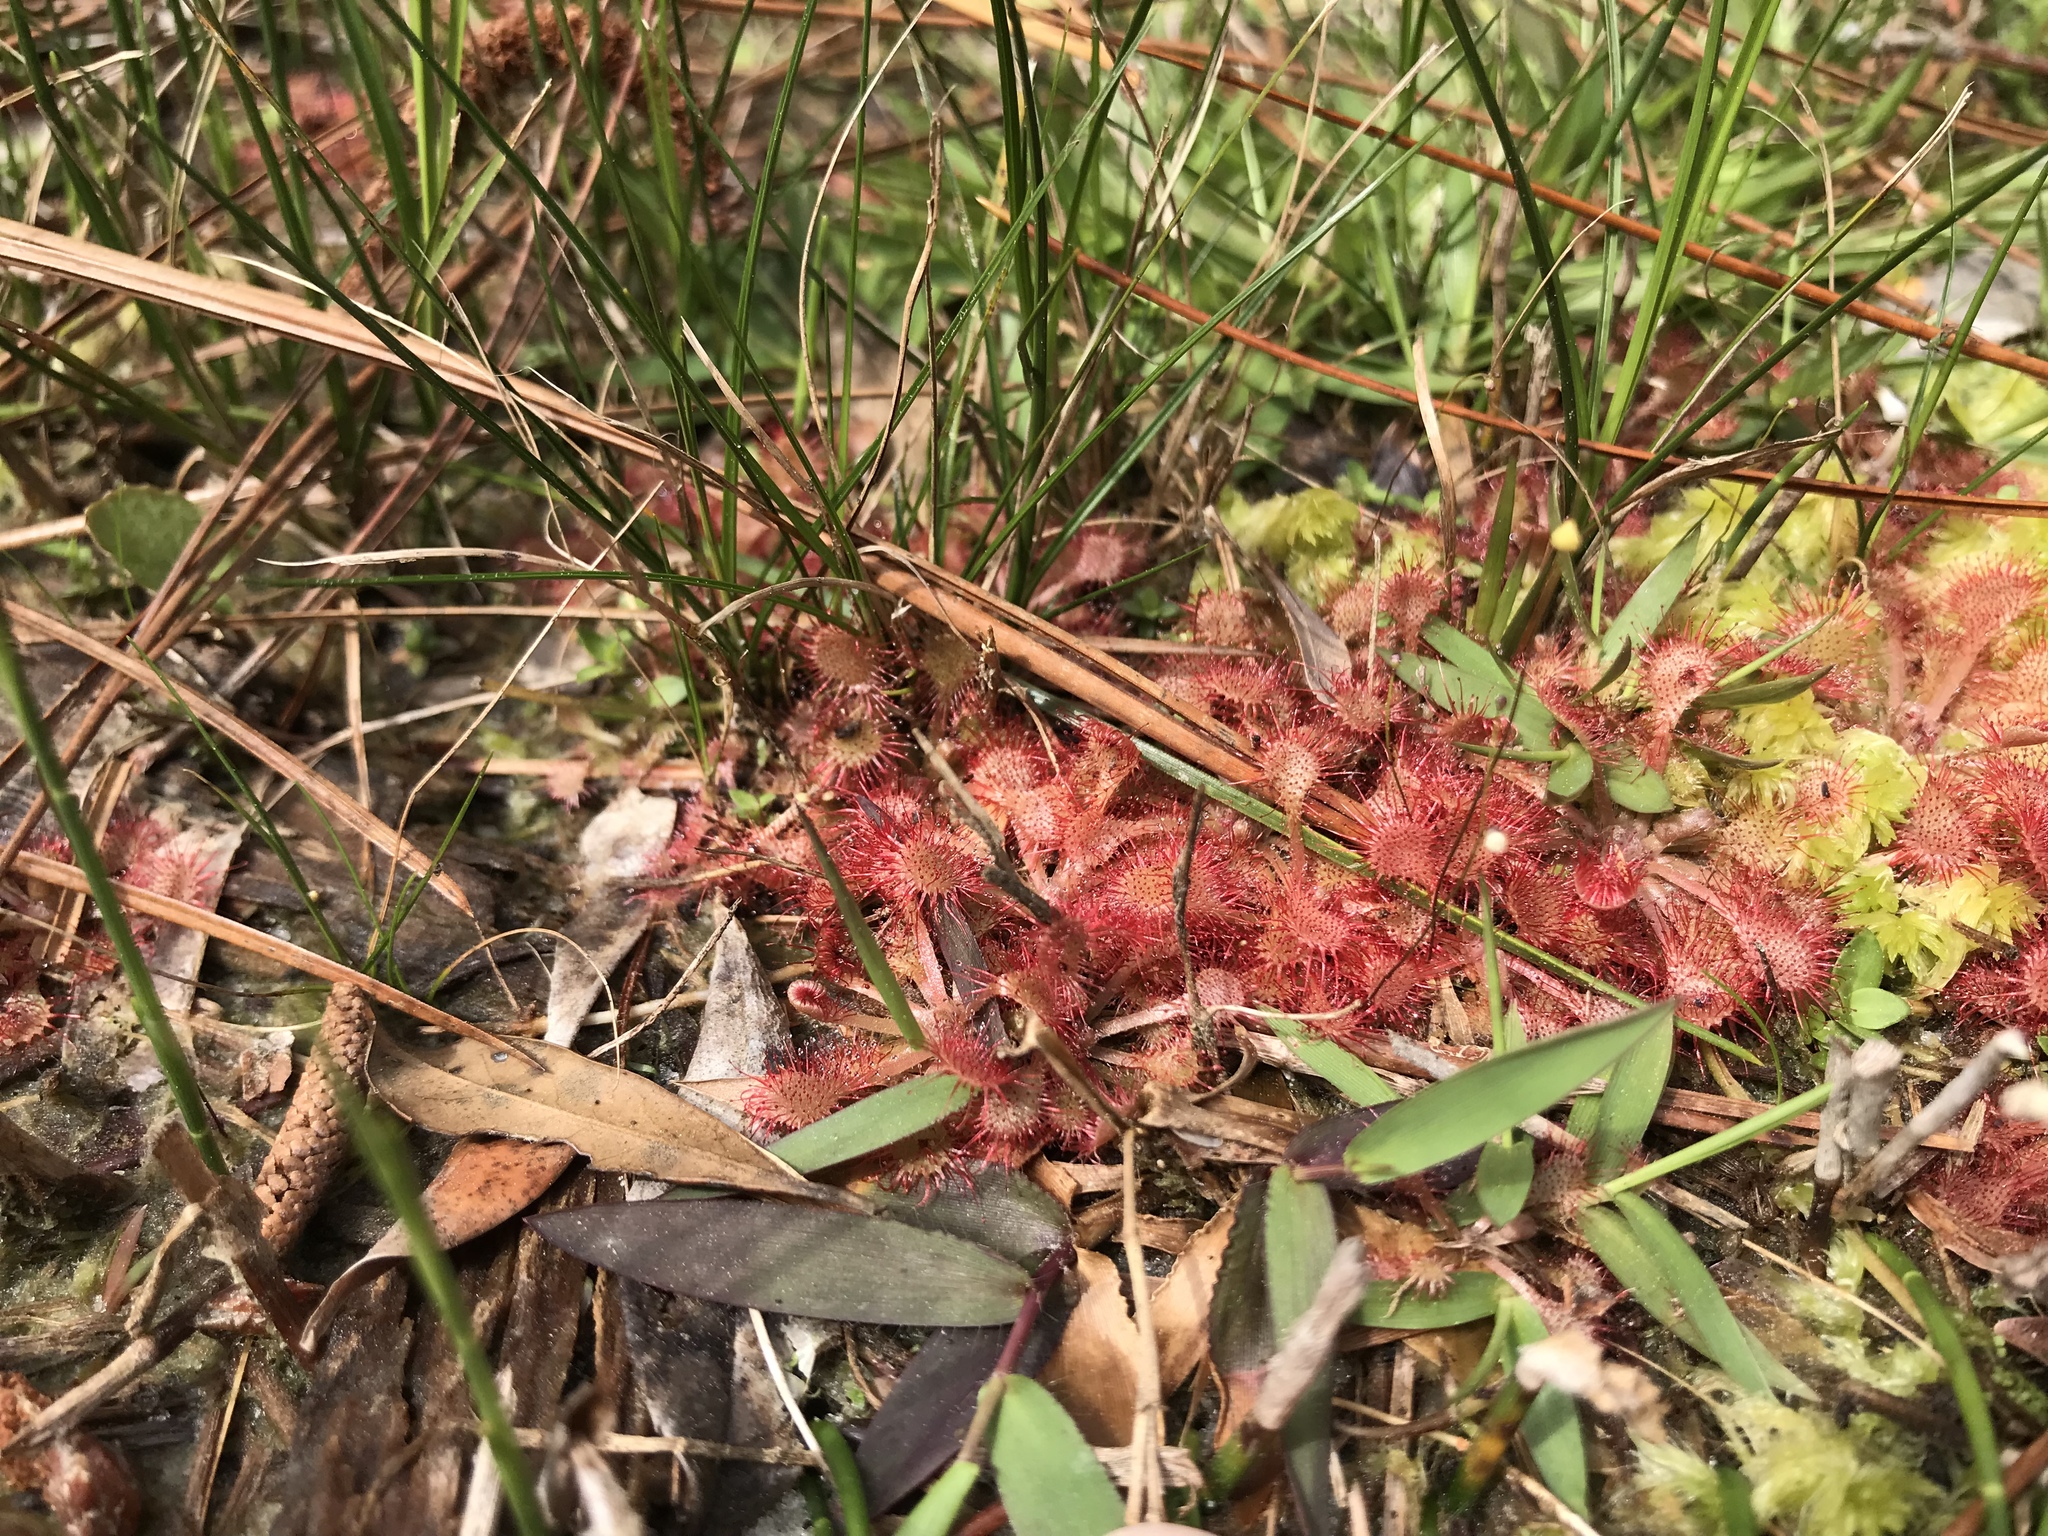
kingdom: Plantae
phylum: Tracheophyta
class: Magnoliopsida
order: Caryophyllales
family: Droseraceae
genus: Drosera
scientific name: Drosera capillaris
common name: Pink sundew
